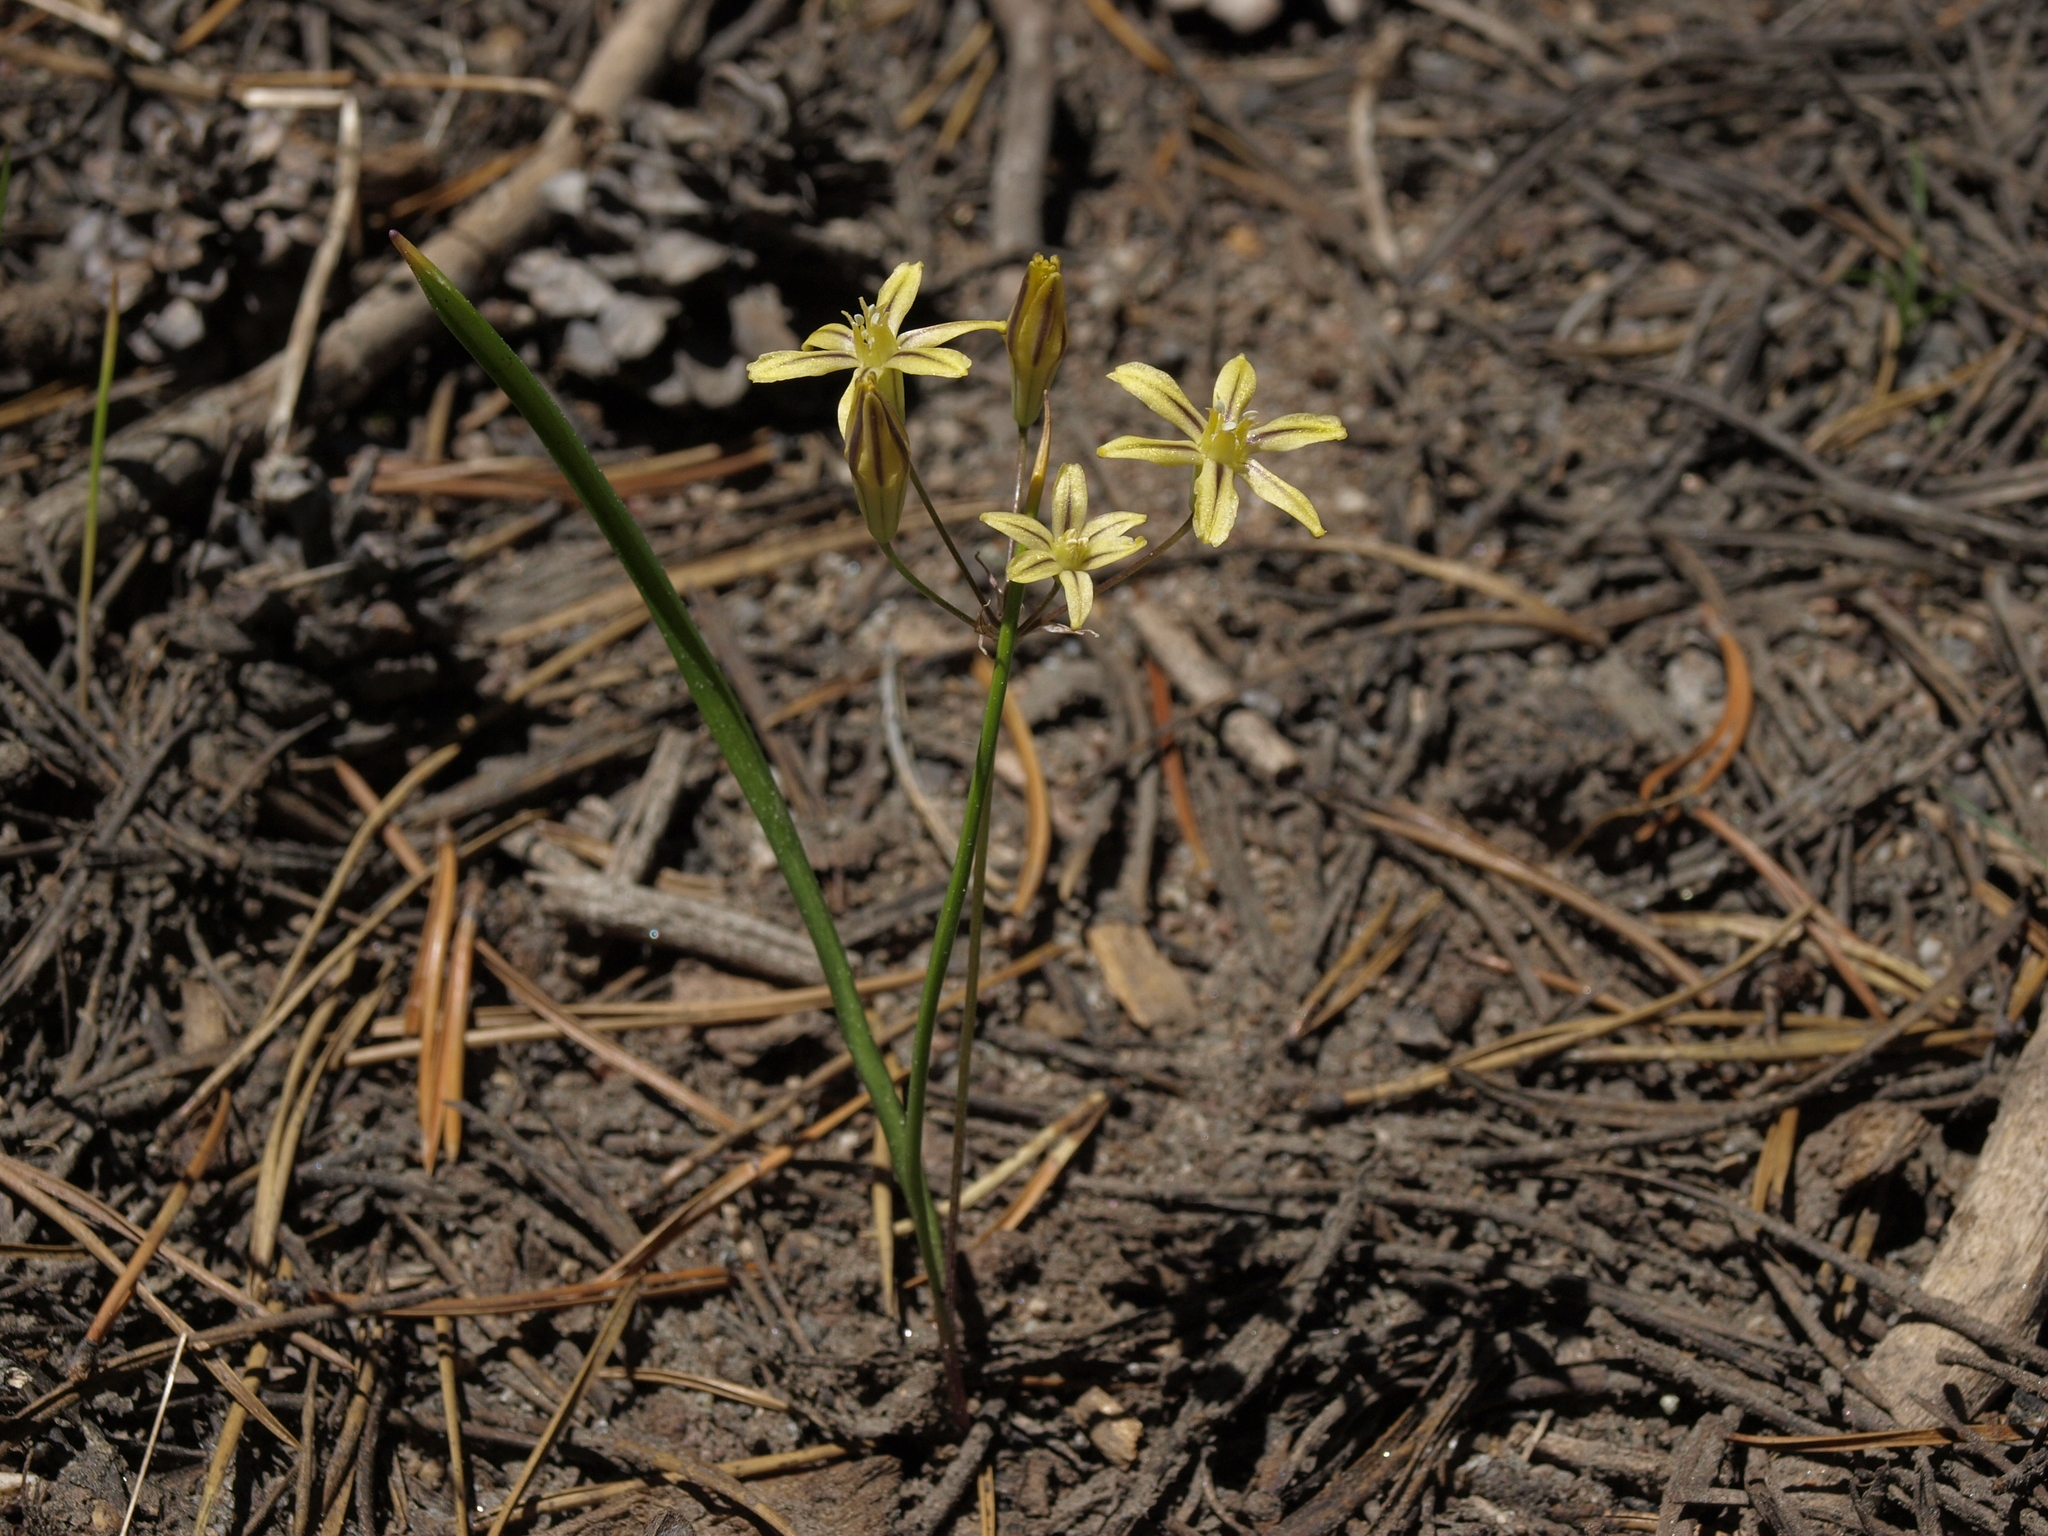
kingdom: Plantae
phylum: Tracheophyta
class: Liliopsida
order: Asparagales
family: Asparagaceae
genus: Triteleia
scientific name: Triteleia ixioides
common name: Yellow-brodiaea
